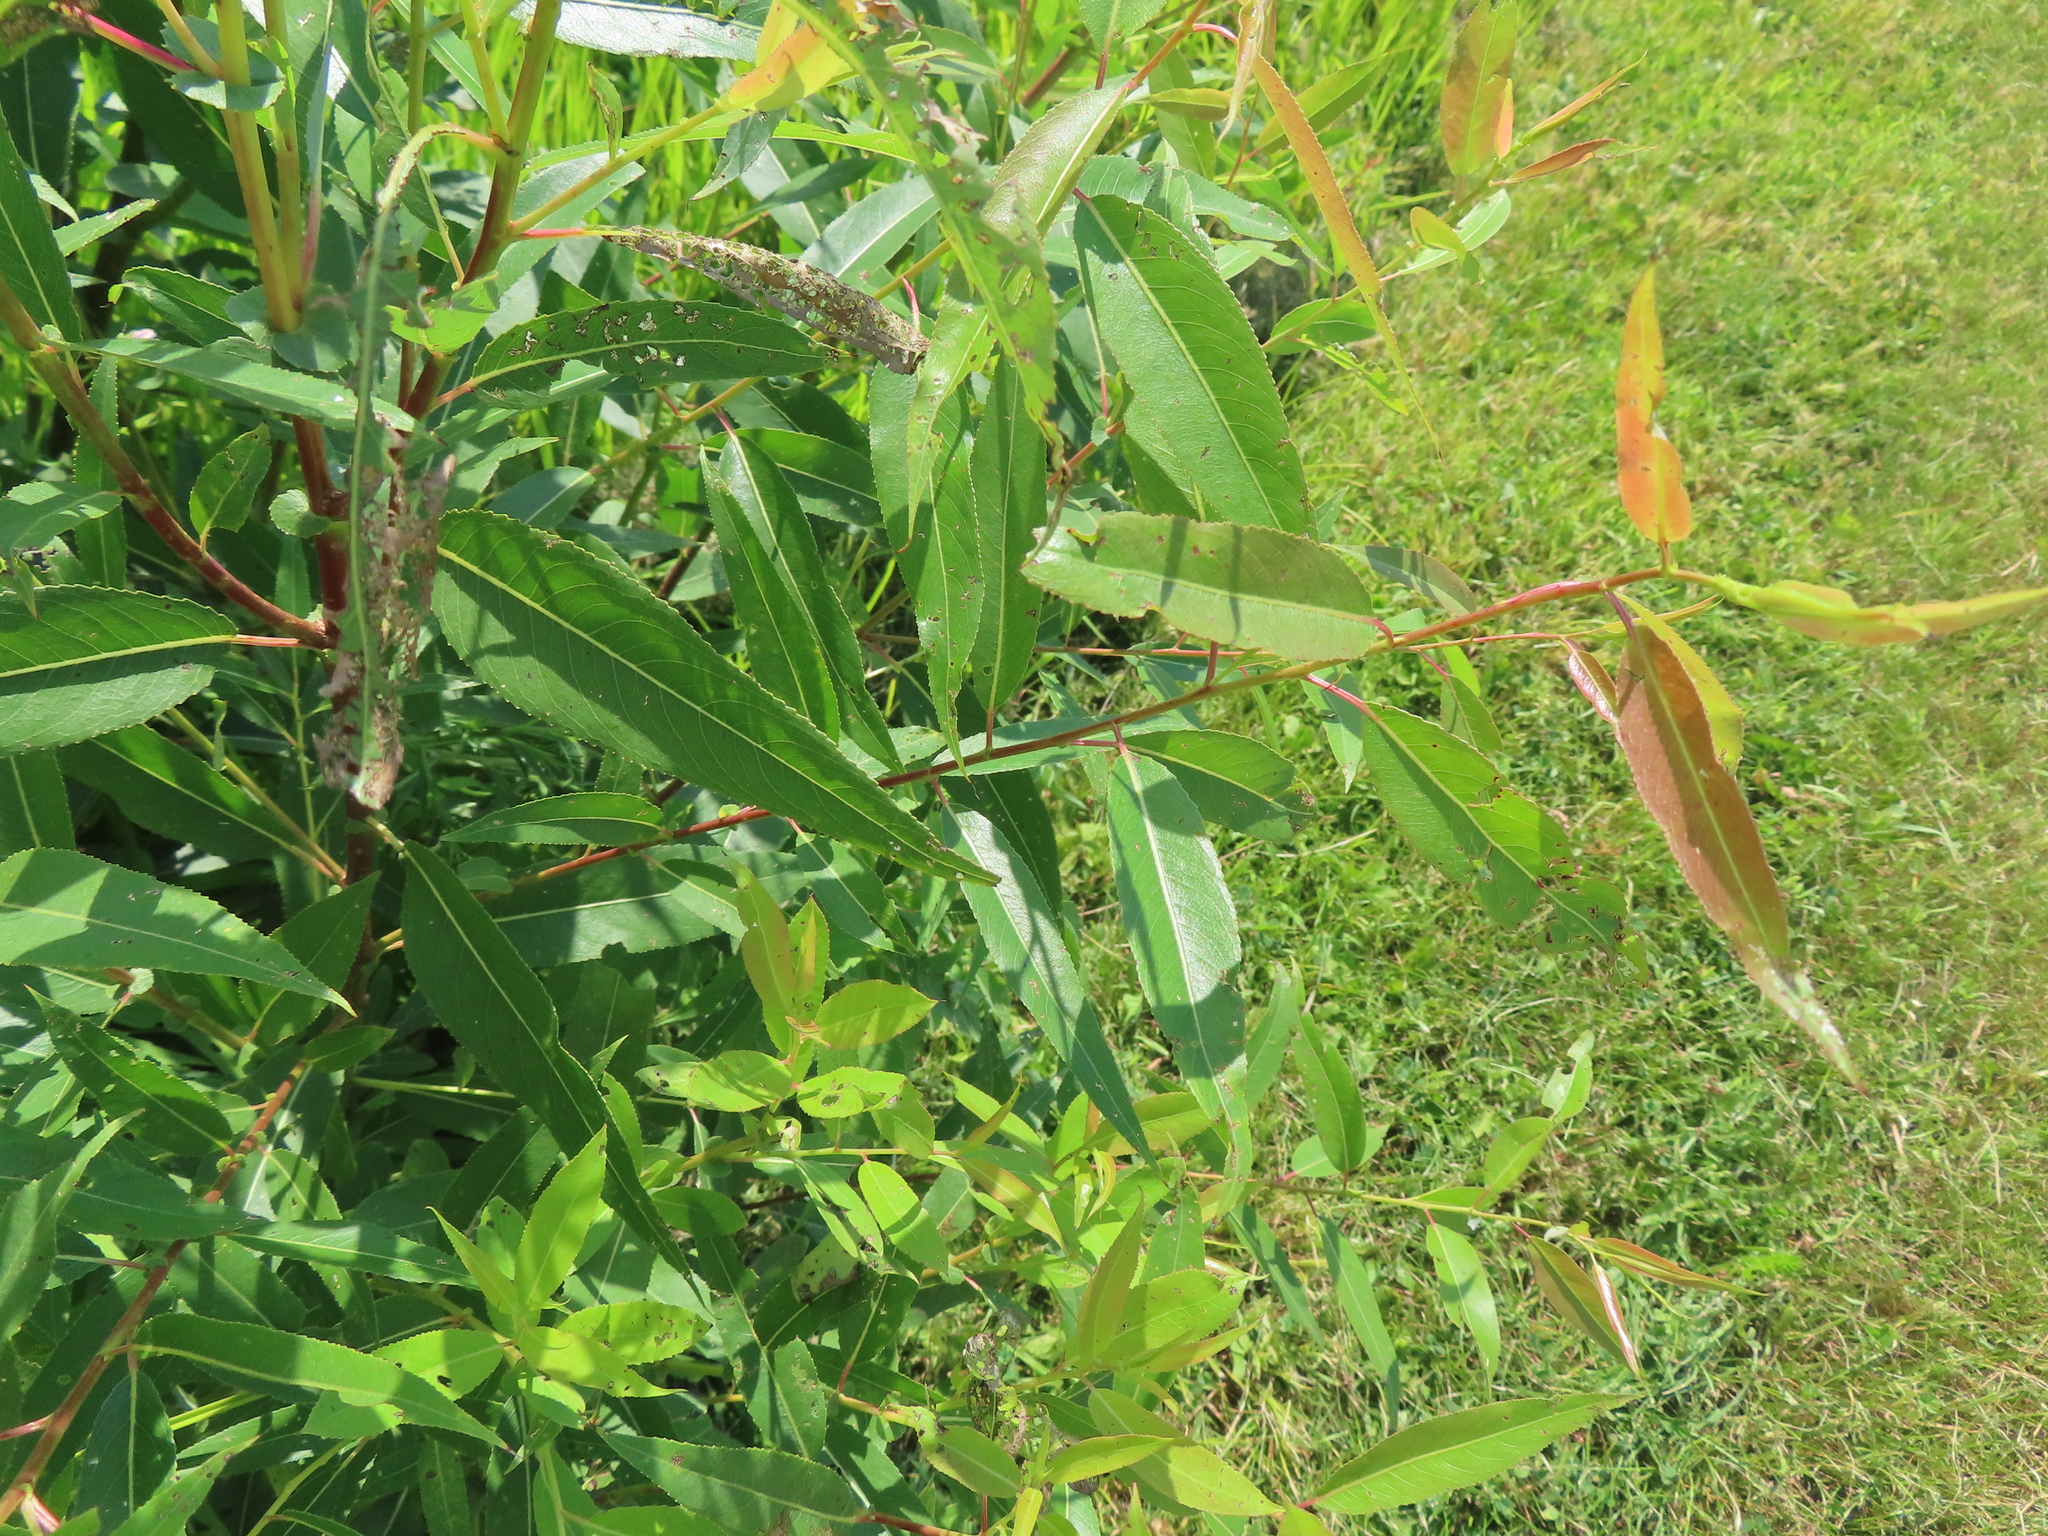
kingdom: Plantae
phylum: Tracheophyta
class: Magnoliopsida
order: Malpighiales
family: Salicaceae
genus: Salix
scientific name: Salix eriocephala
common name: Heart-leaved willow
